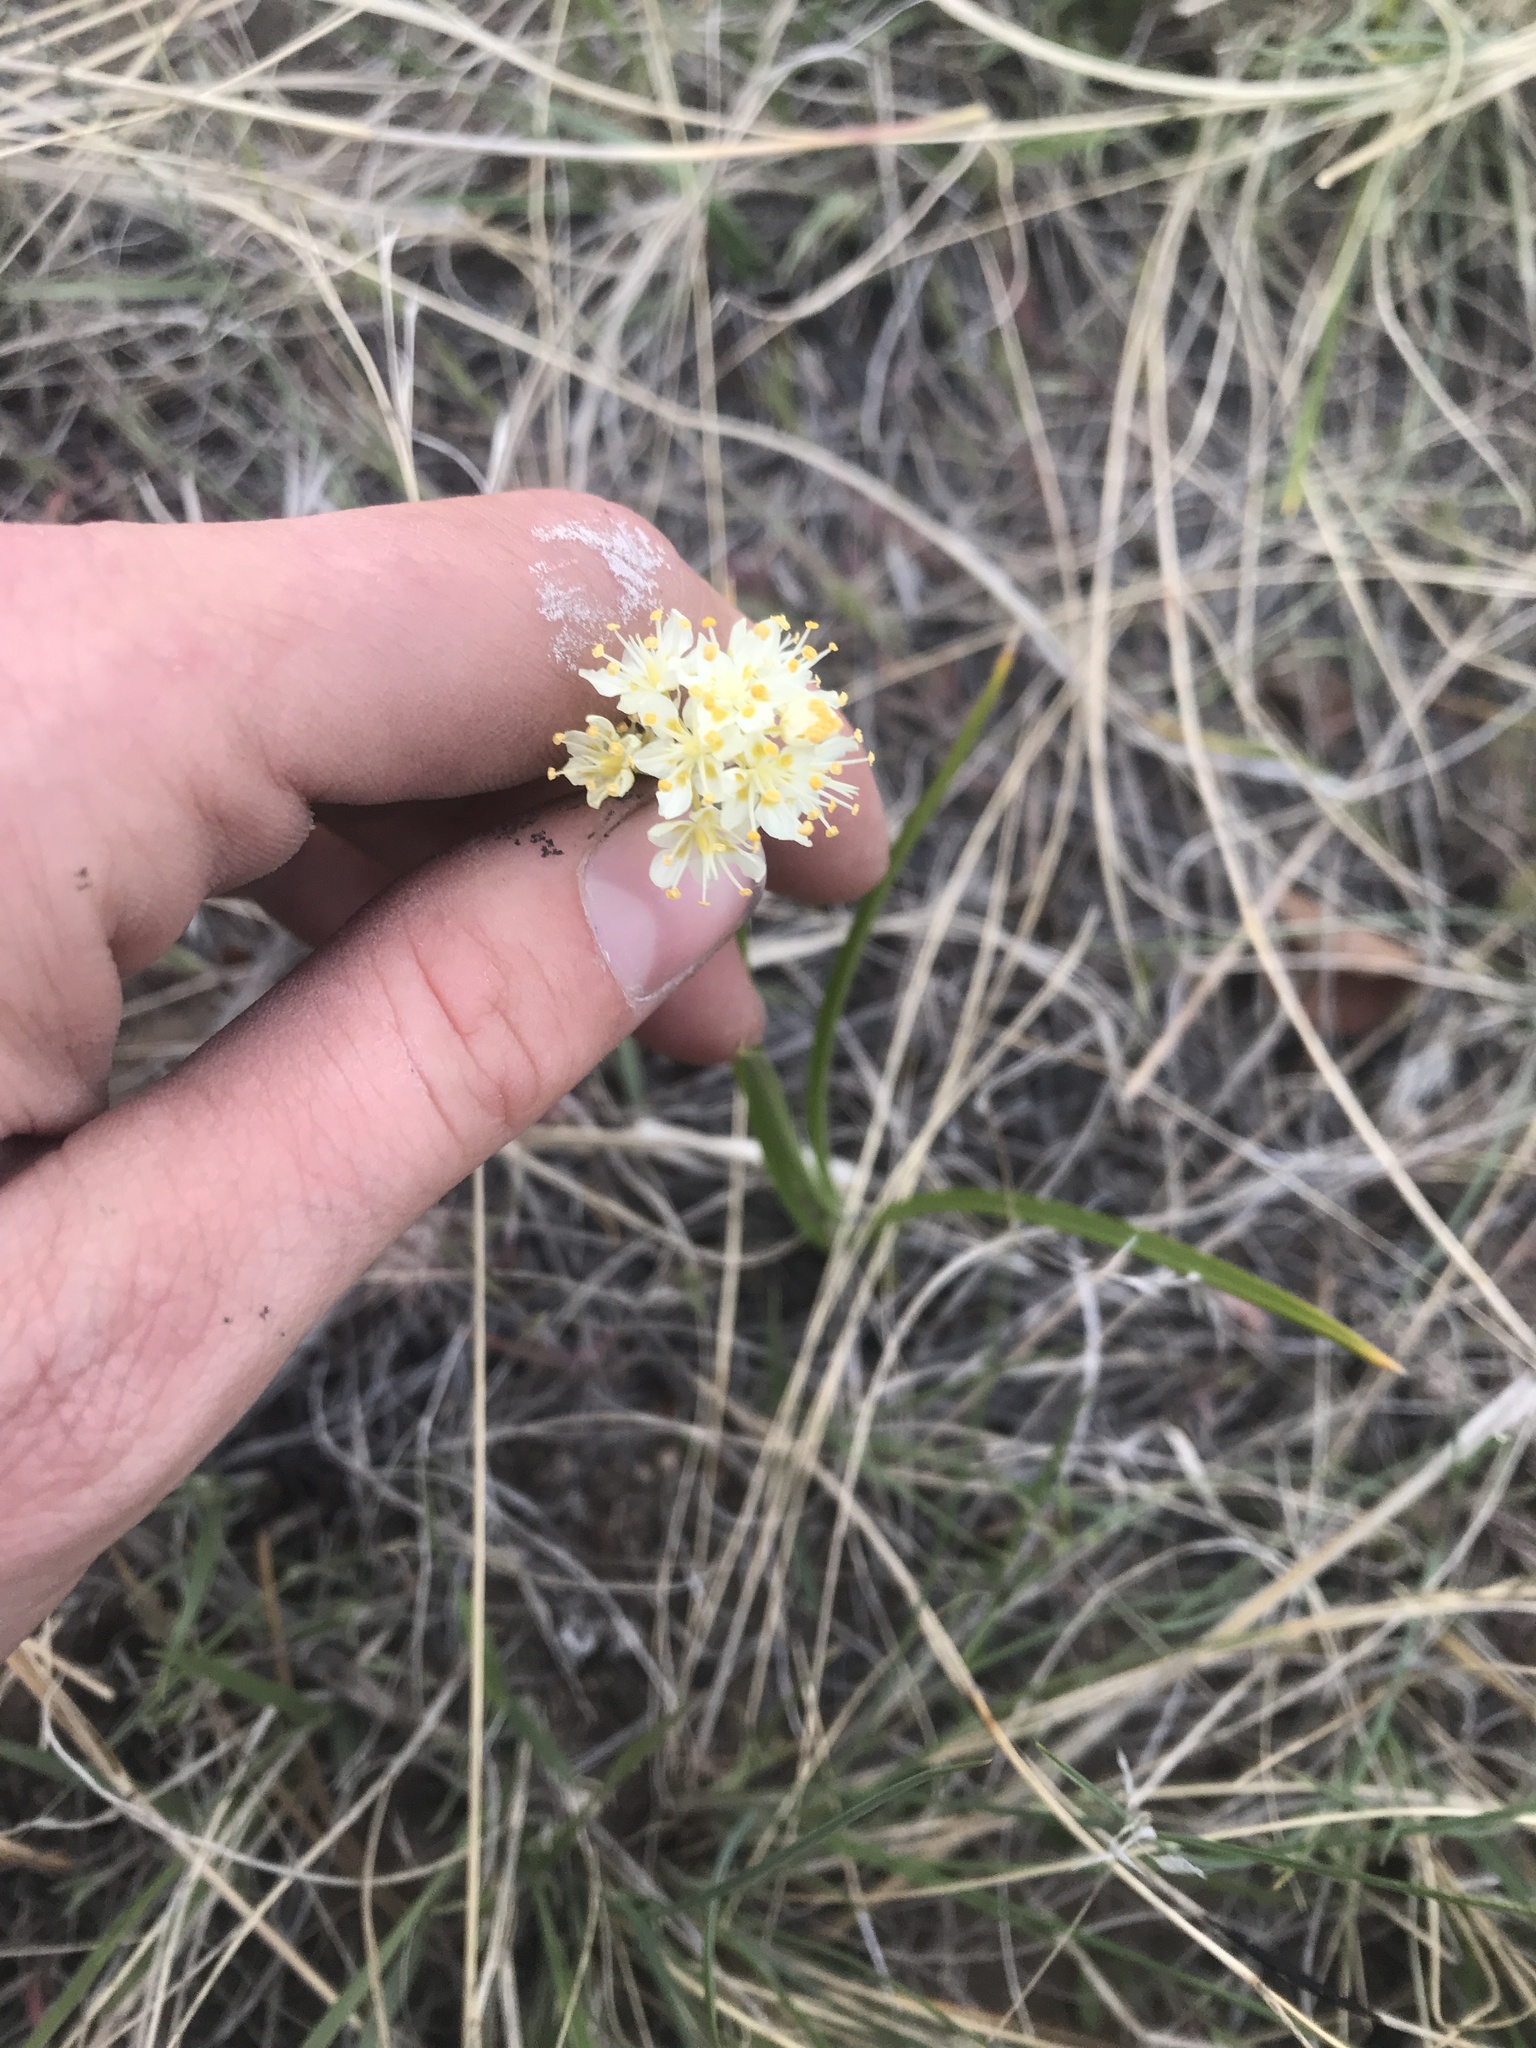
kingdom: Plantae
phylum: Tracheophyta
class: Liliopsida
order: Liliales
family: Melanthiaceae
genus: Toxicoscordion
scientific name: Toxicoscordion venenosum
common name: Meadow death camas
